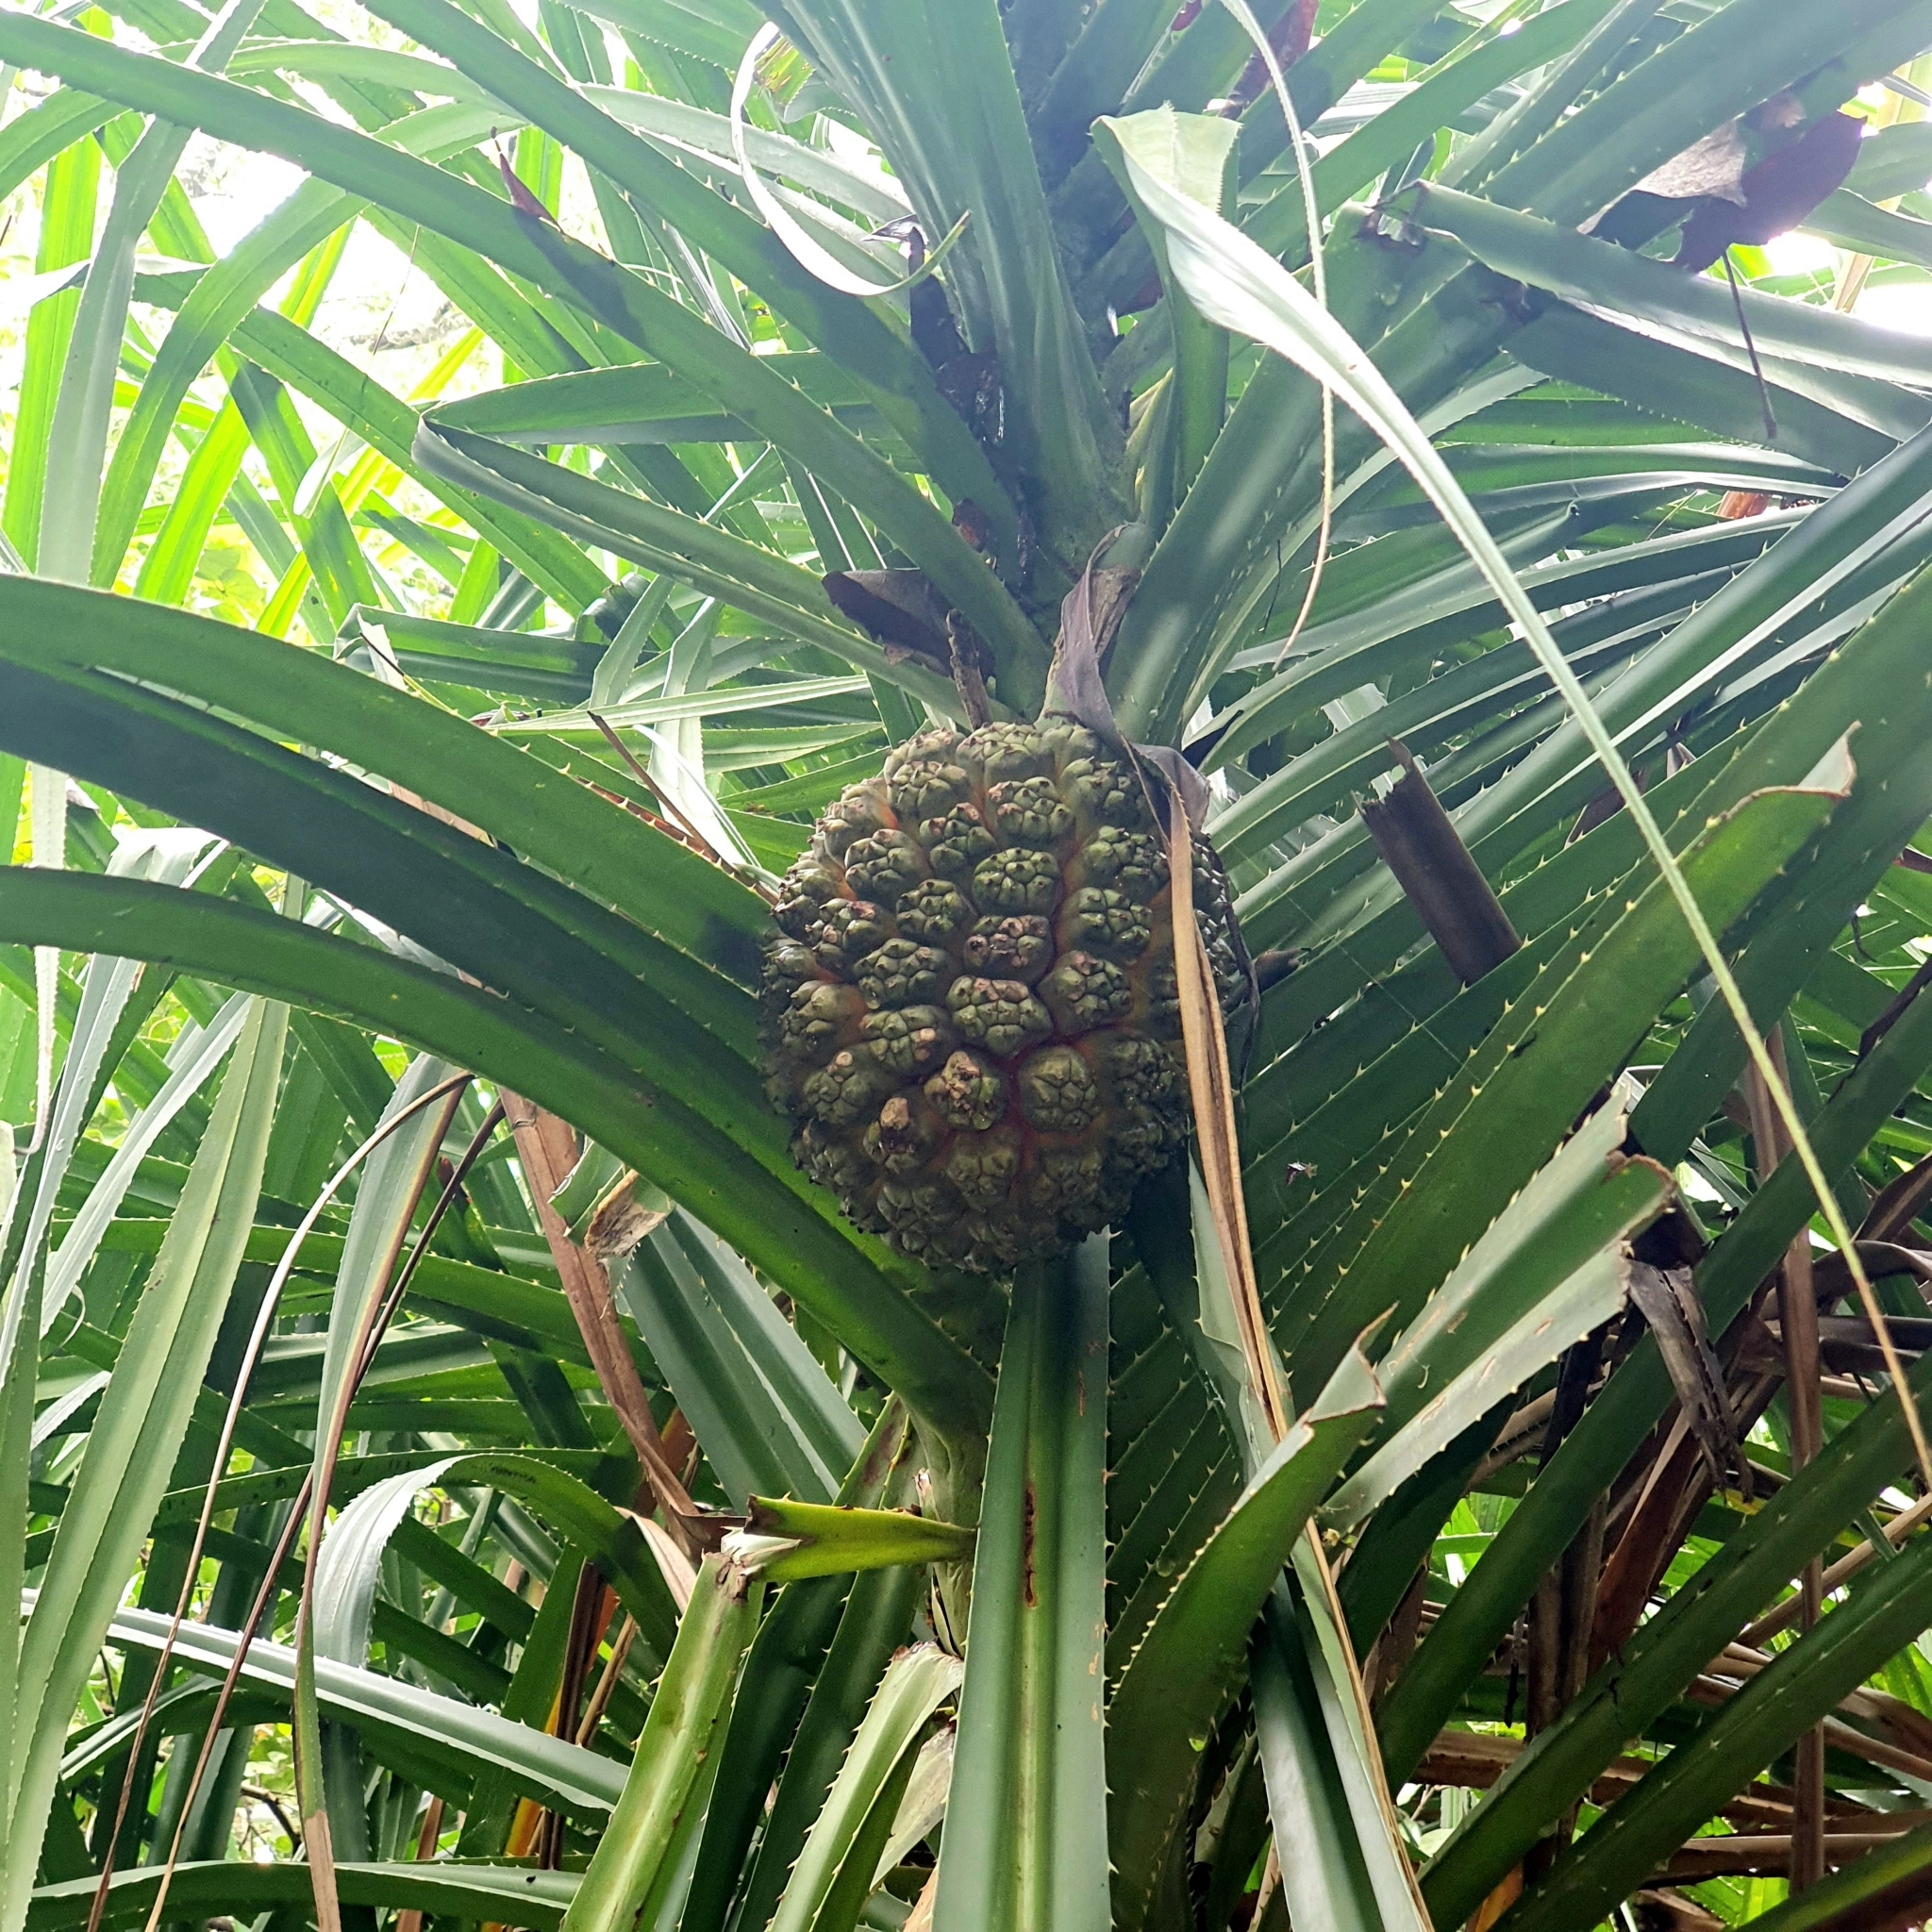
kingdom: Plantae
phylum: Tracheophyta
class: Liliopsida
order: Pandanales
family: Pandanaceae
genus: Pandanus
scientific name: Pandanus odorifer
